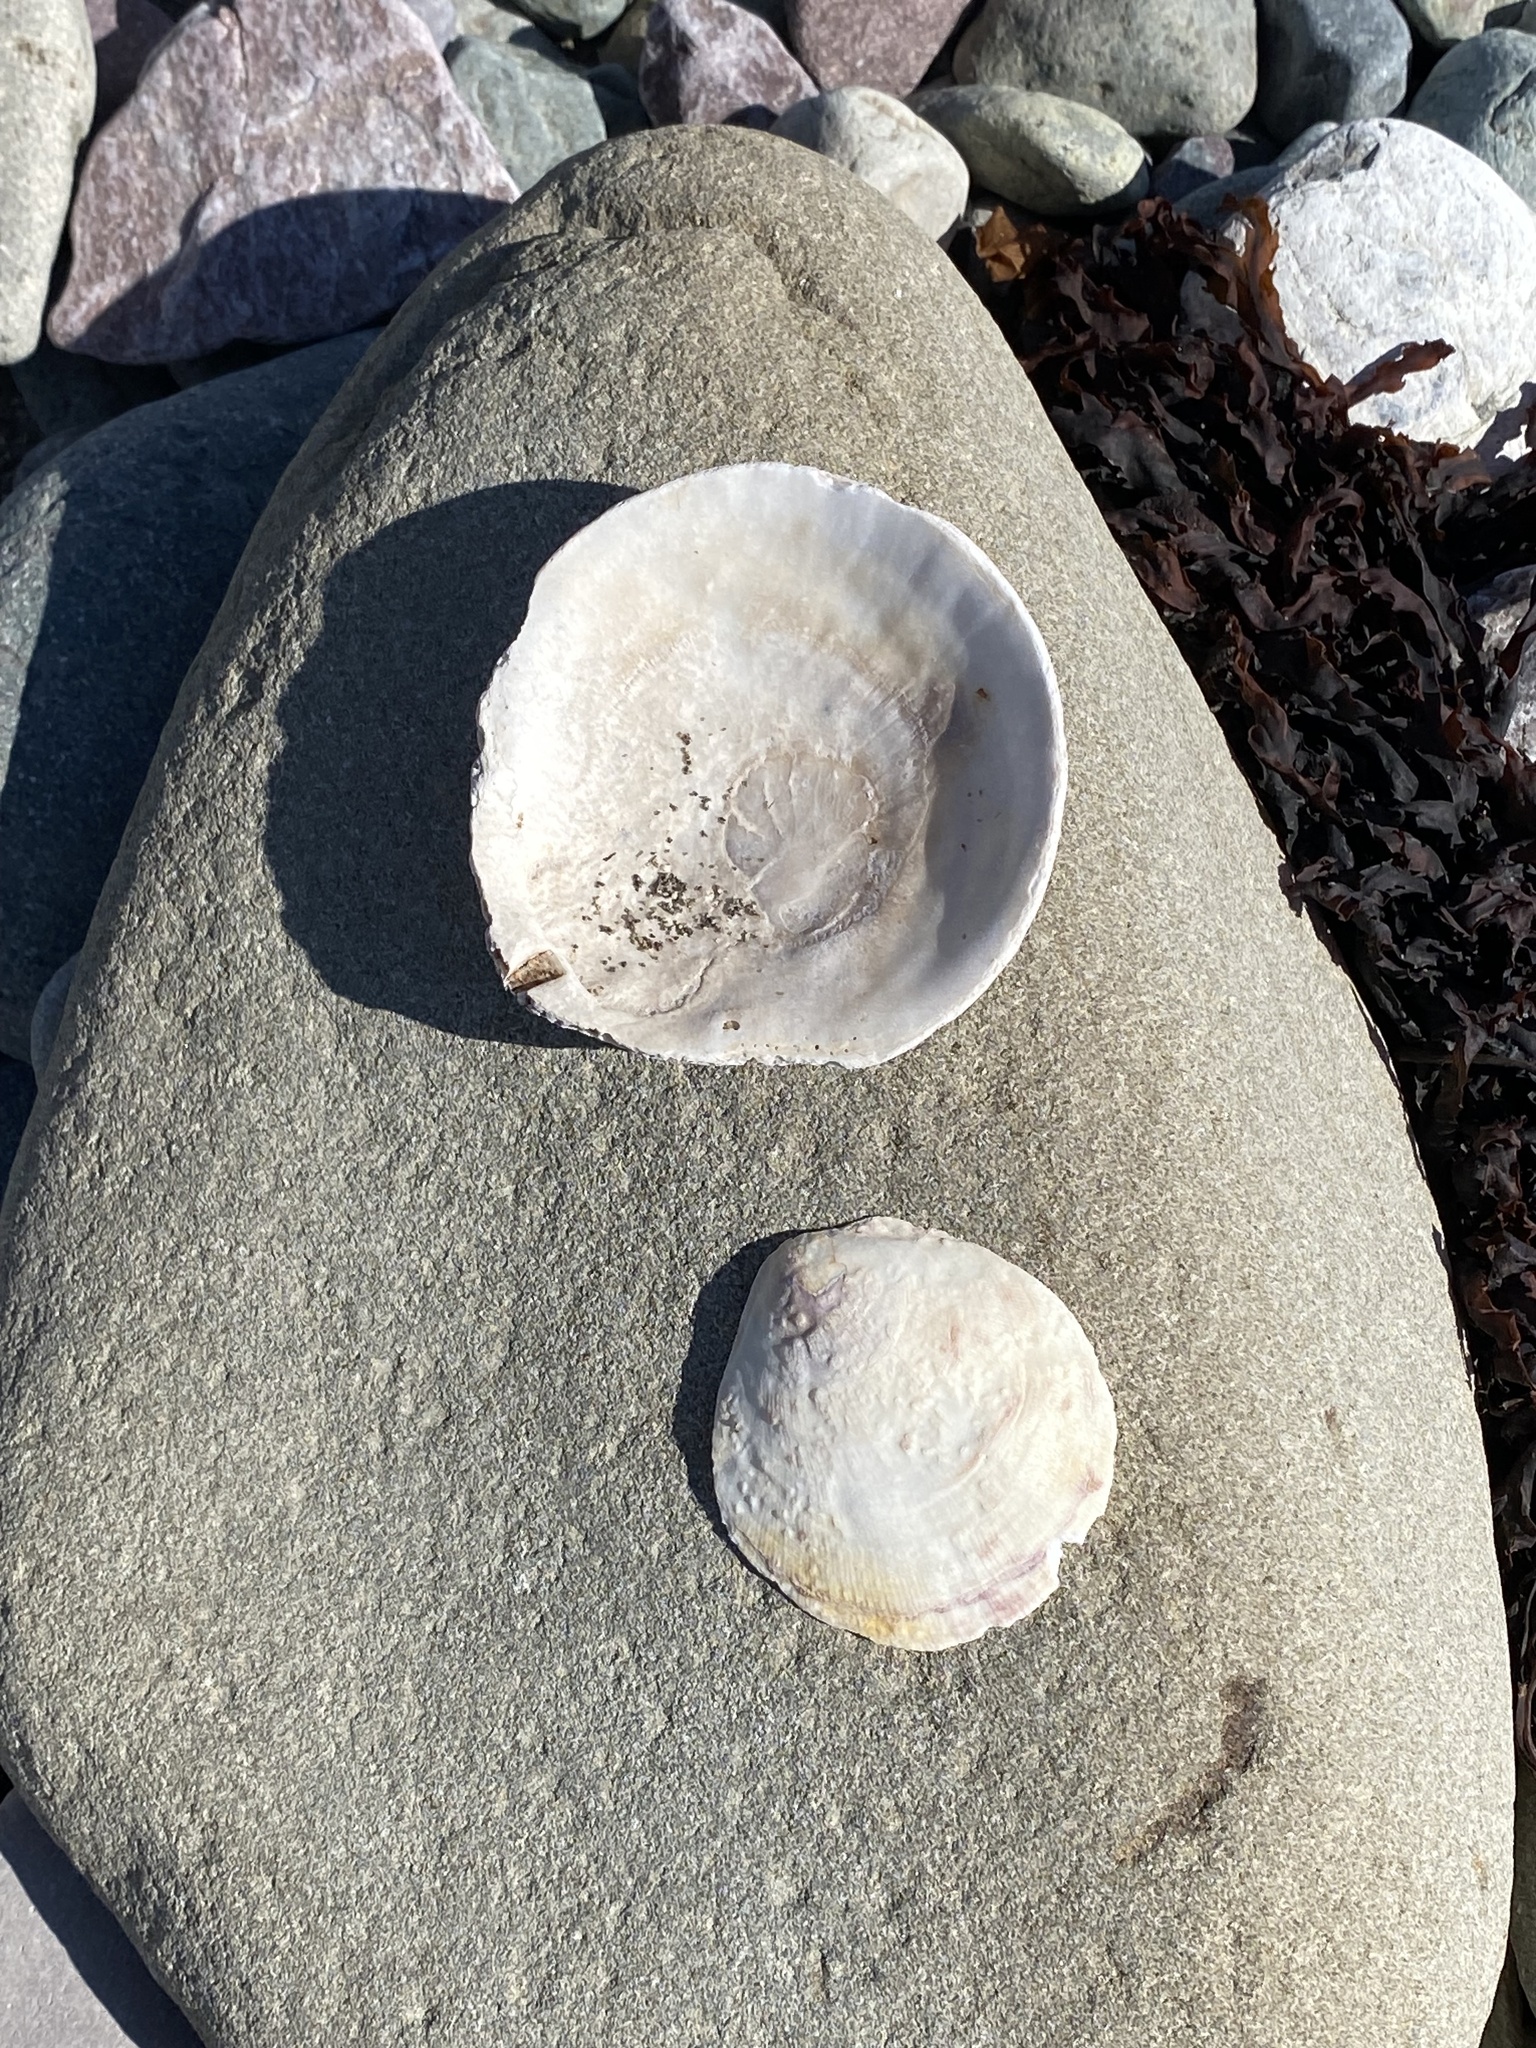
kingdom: Animalia
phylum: Mollusca
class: Bivalvia
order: Pectinida
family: Pectinidae
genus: Placopecten
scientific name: Placopecten magellanicus
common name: American sea scallop
